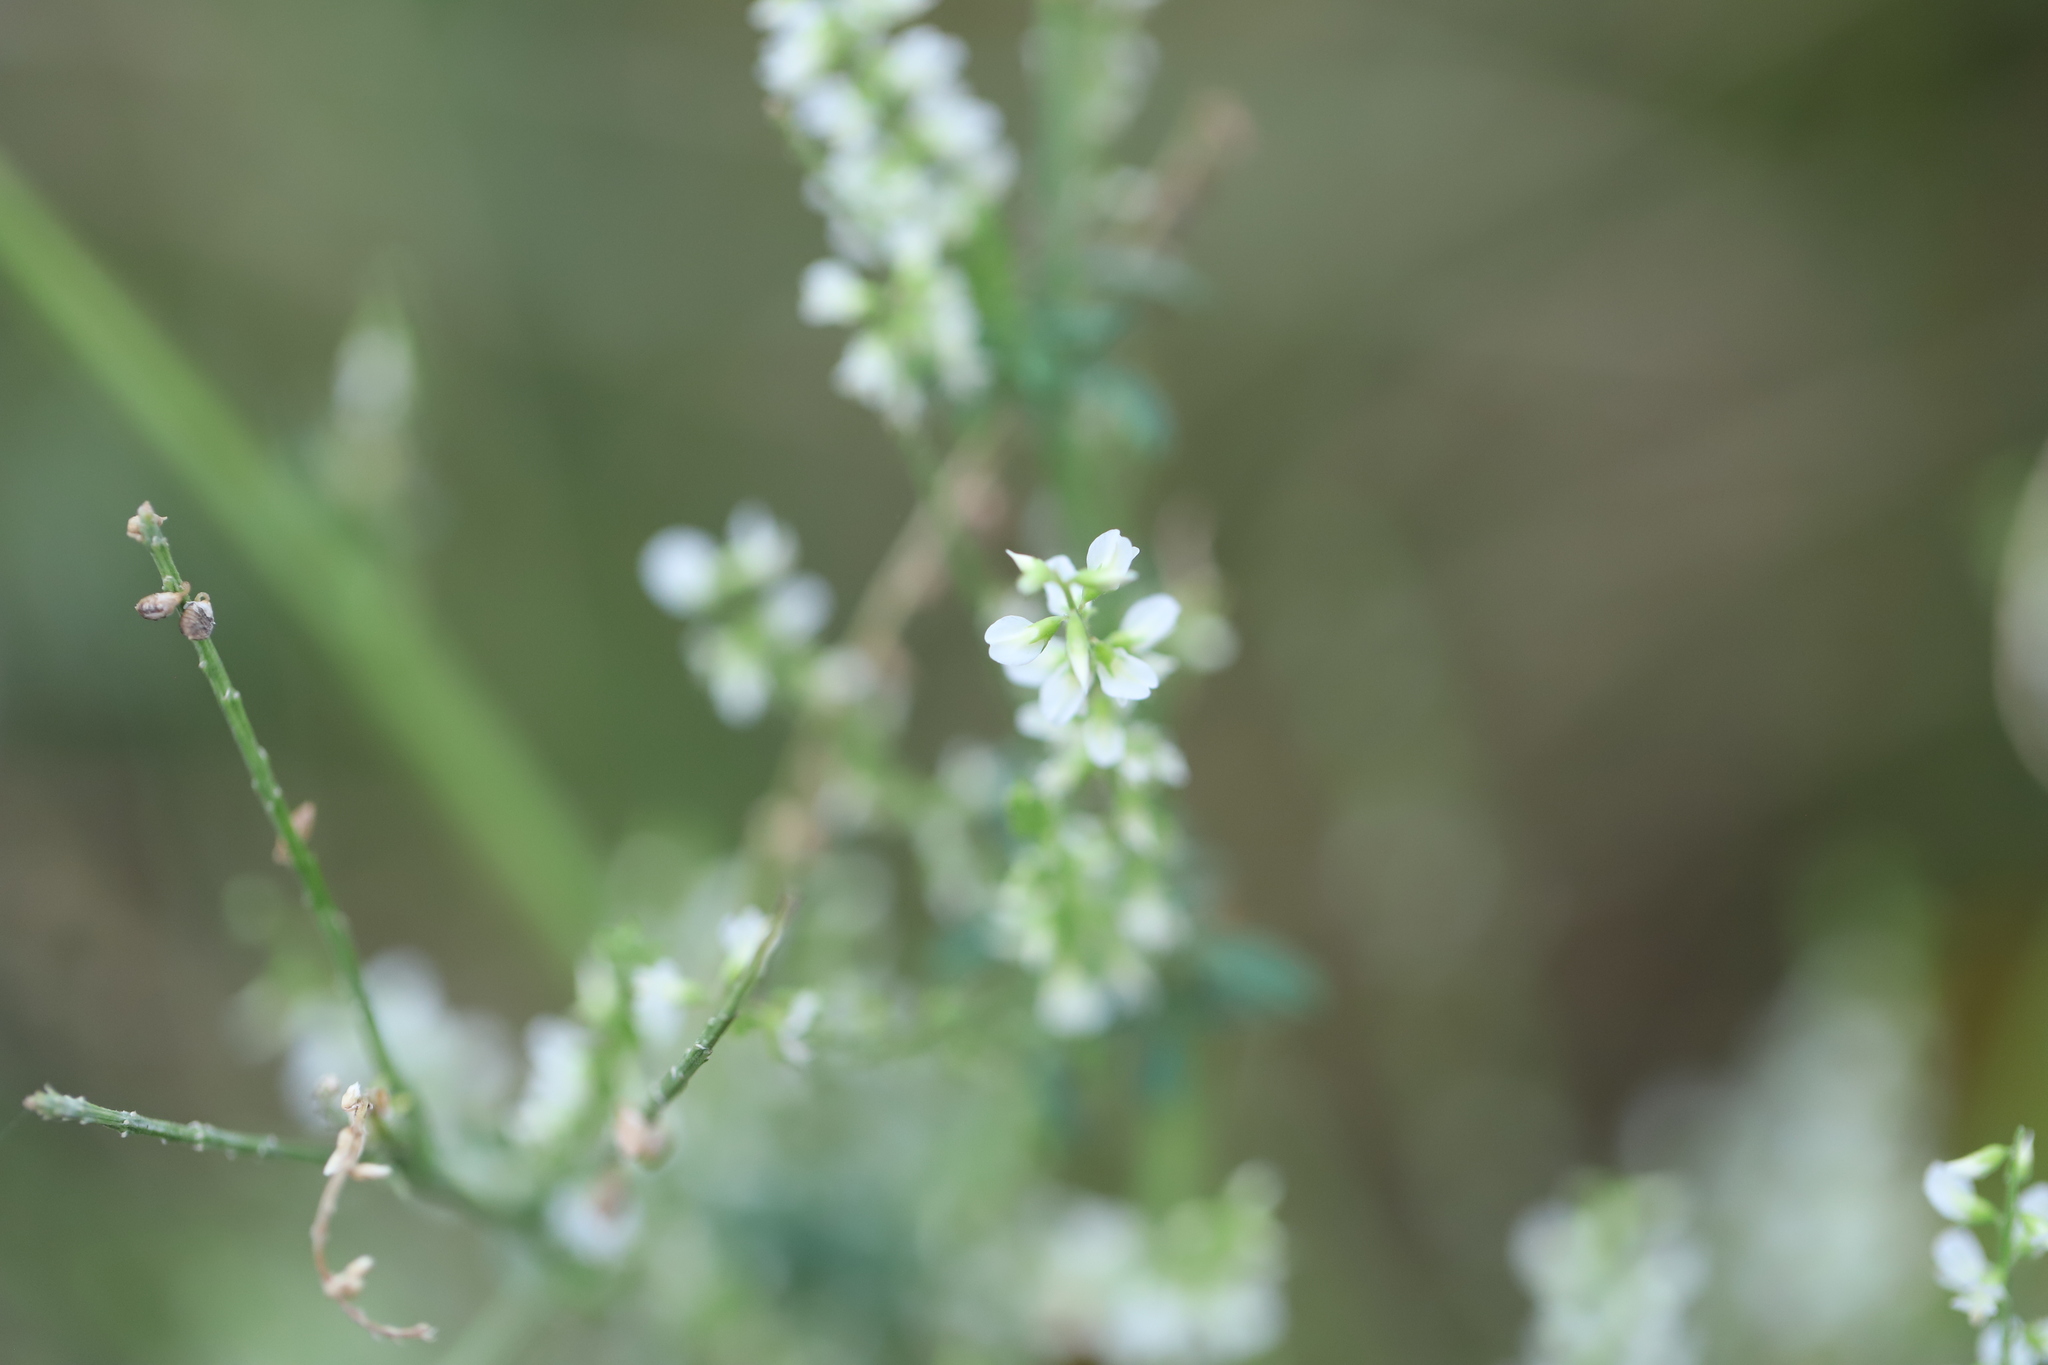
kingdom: Plantae
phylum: Tracheophyta
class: Magnoliopsida
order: Fabales
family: Fabaceae
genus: Melilotus
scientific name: Melilotus albus
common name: White melilot
